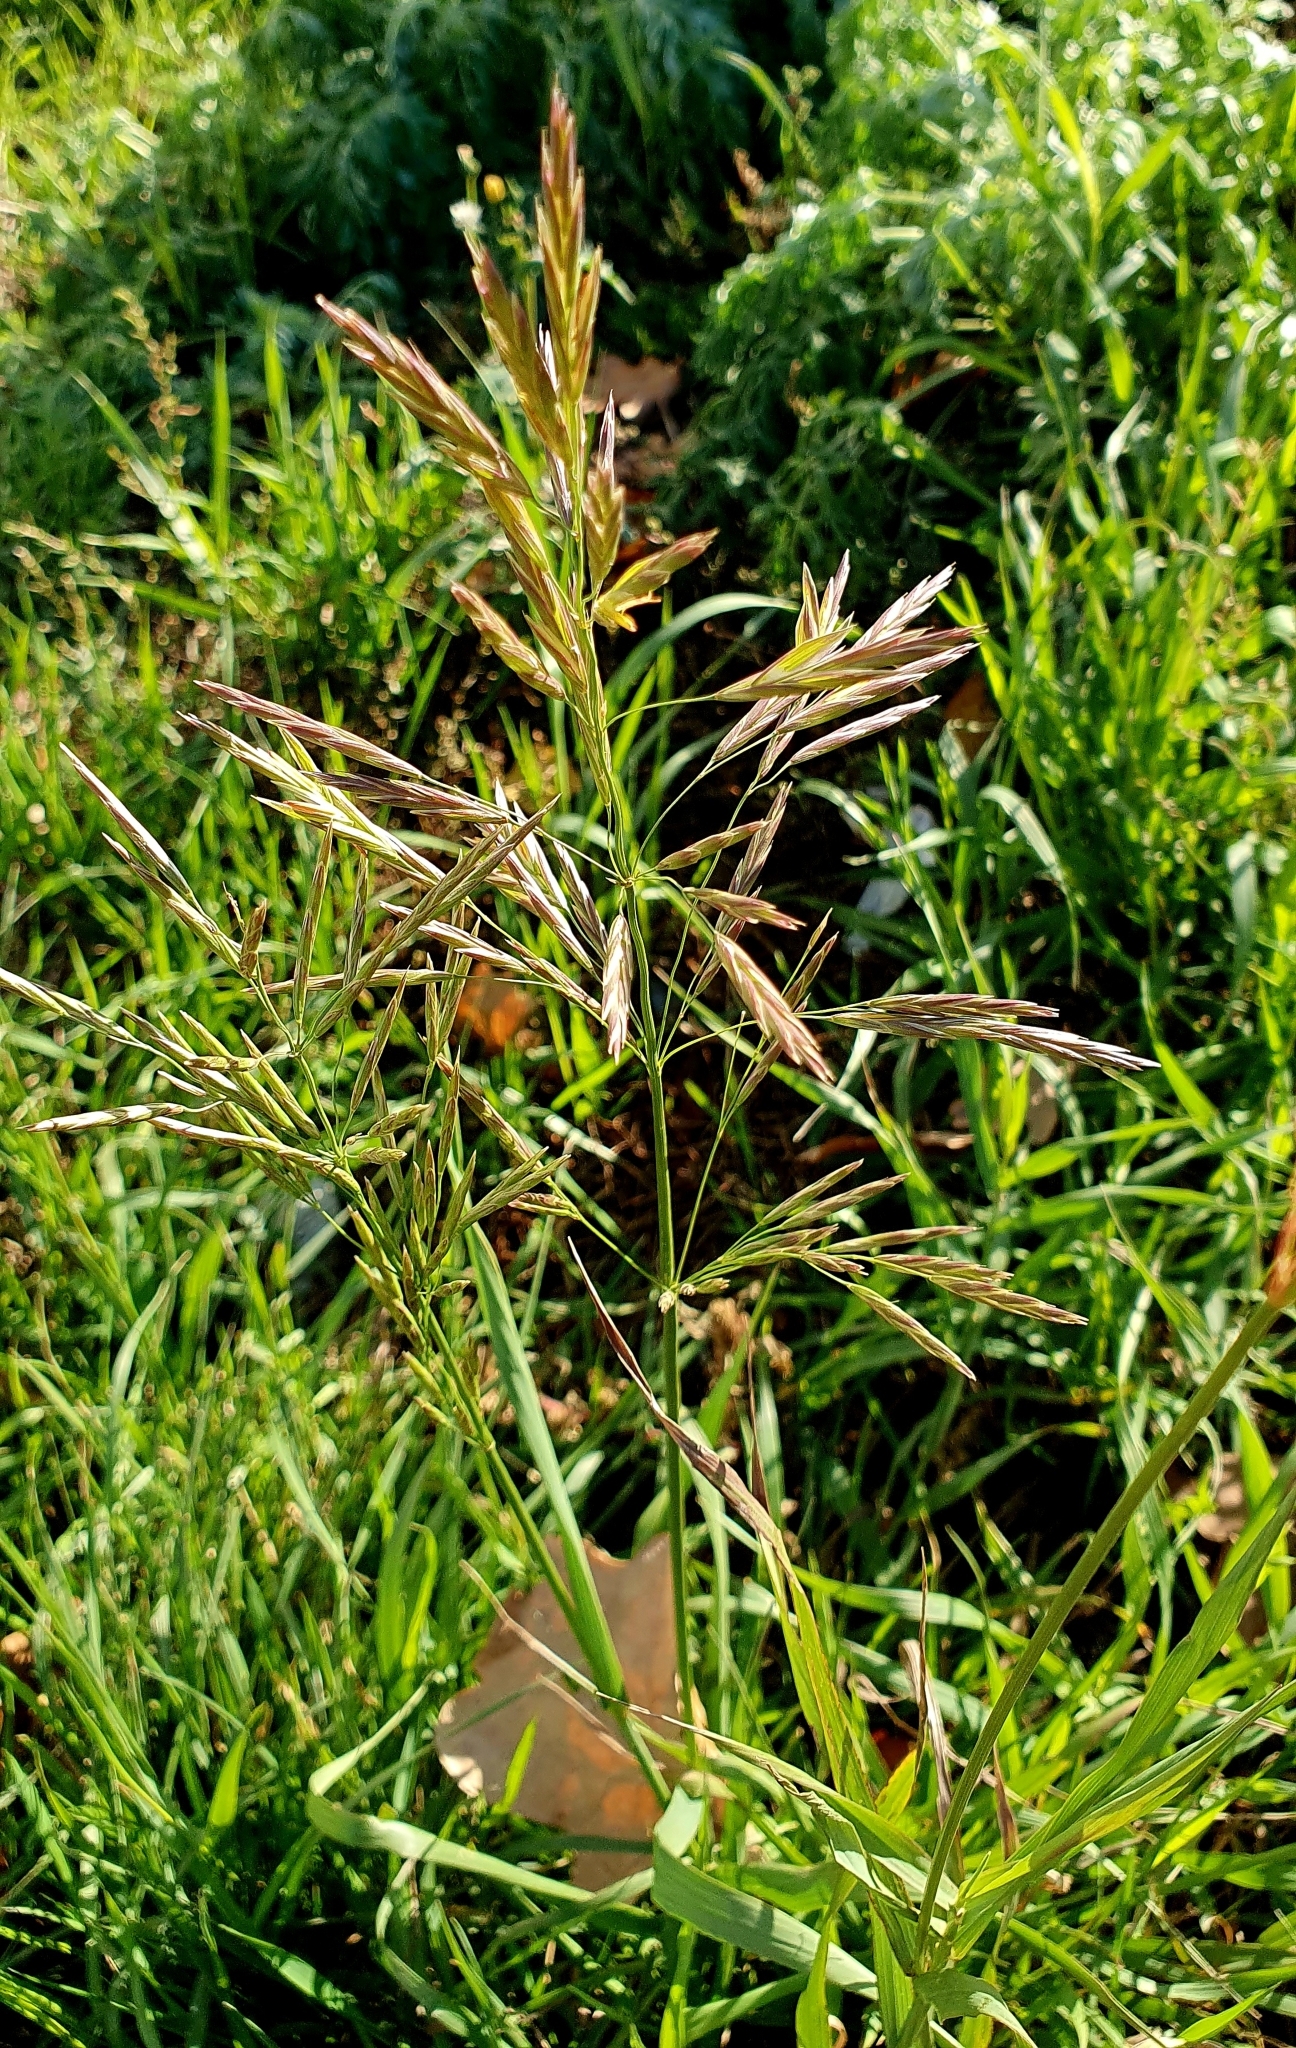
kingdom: Plantae
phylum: Tracheophyta
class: Liliopsida
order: Poales
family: Poaceae
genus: Bromus
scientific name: Bromus inermis
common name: Smooth brome
